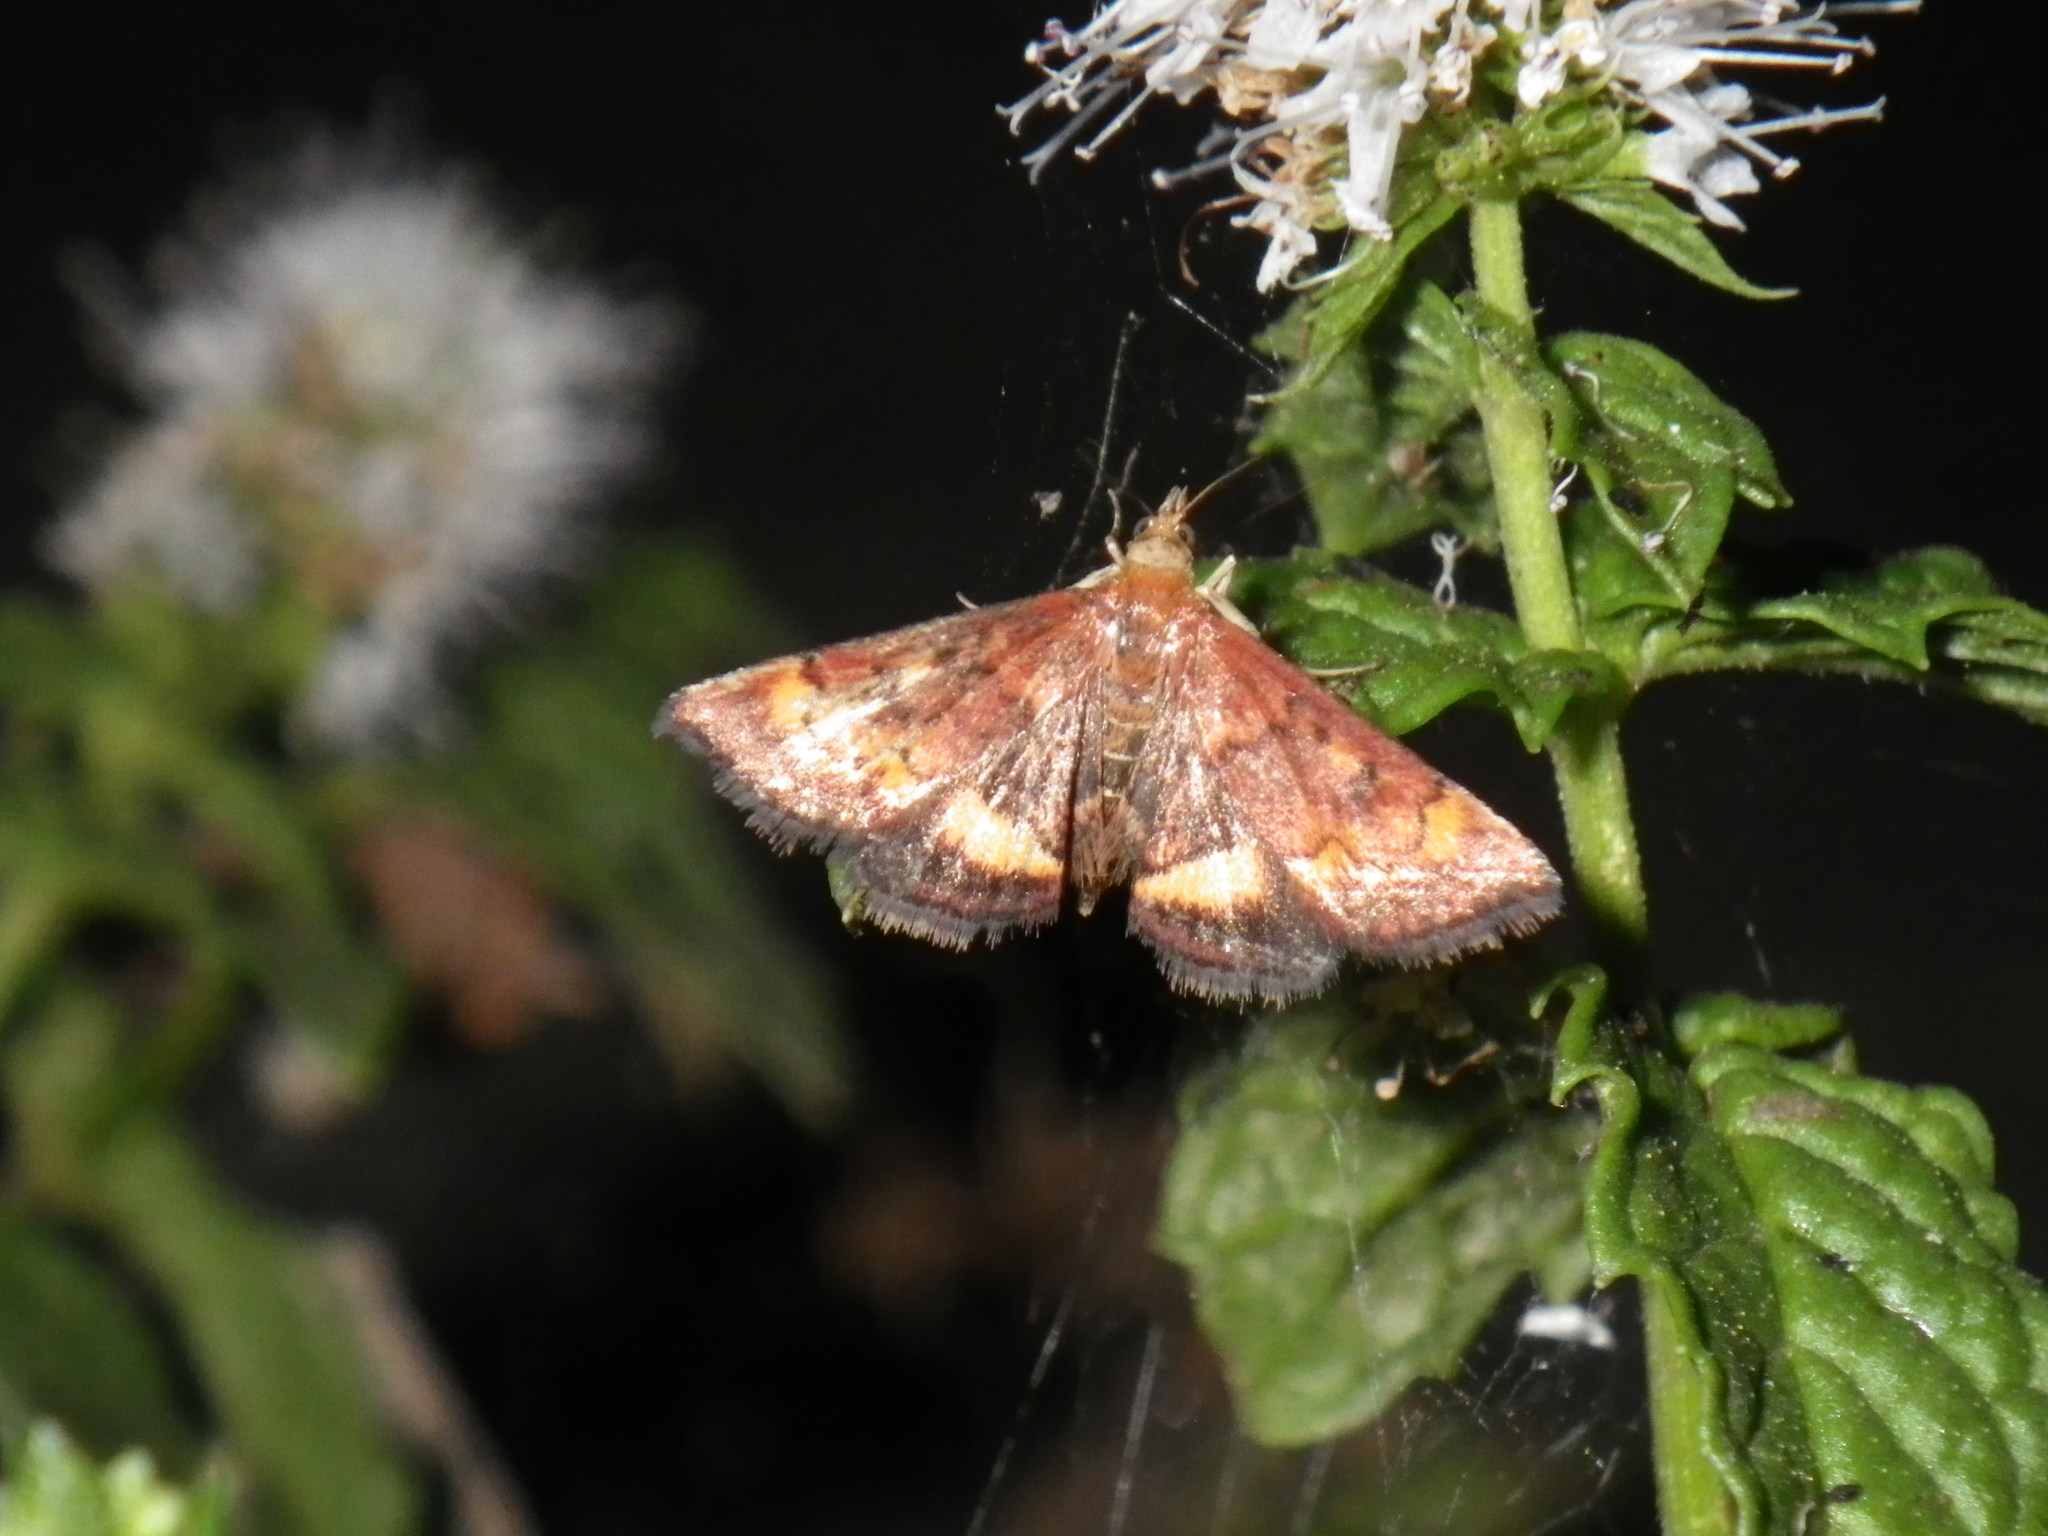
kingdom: Animalia
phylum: Arthropoda
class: Insecta
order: Lepidoptera
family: Crambidae
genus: Pyrausta
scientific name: Pyrausta californicalis
